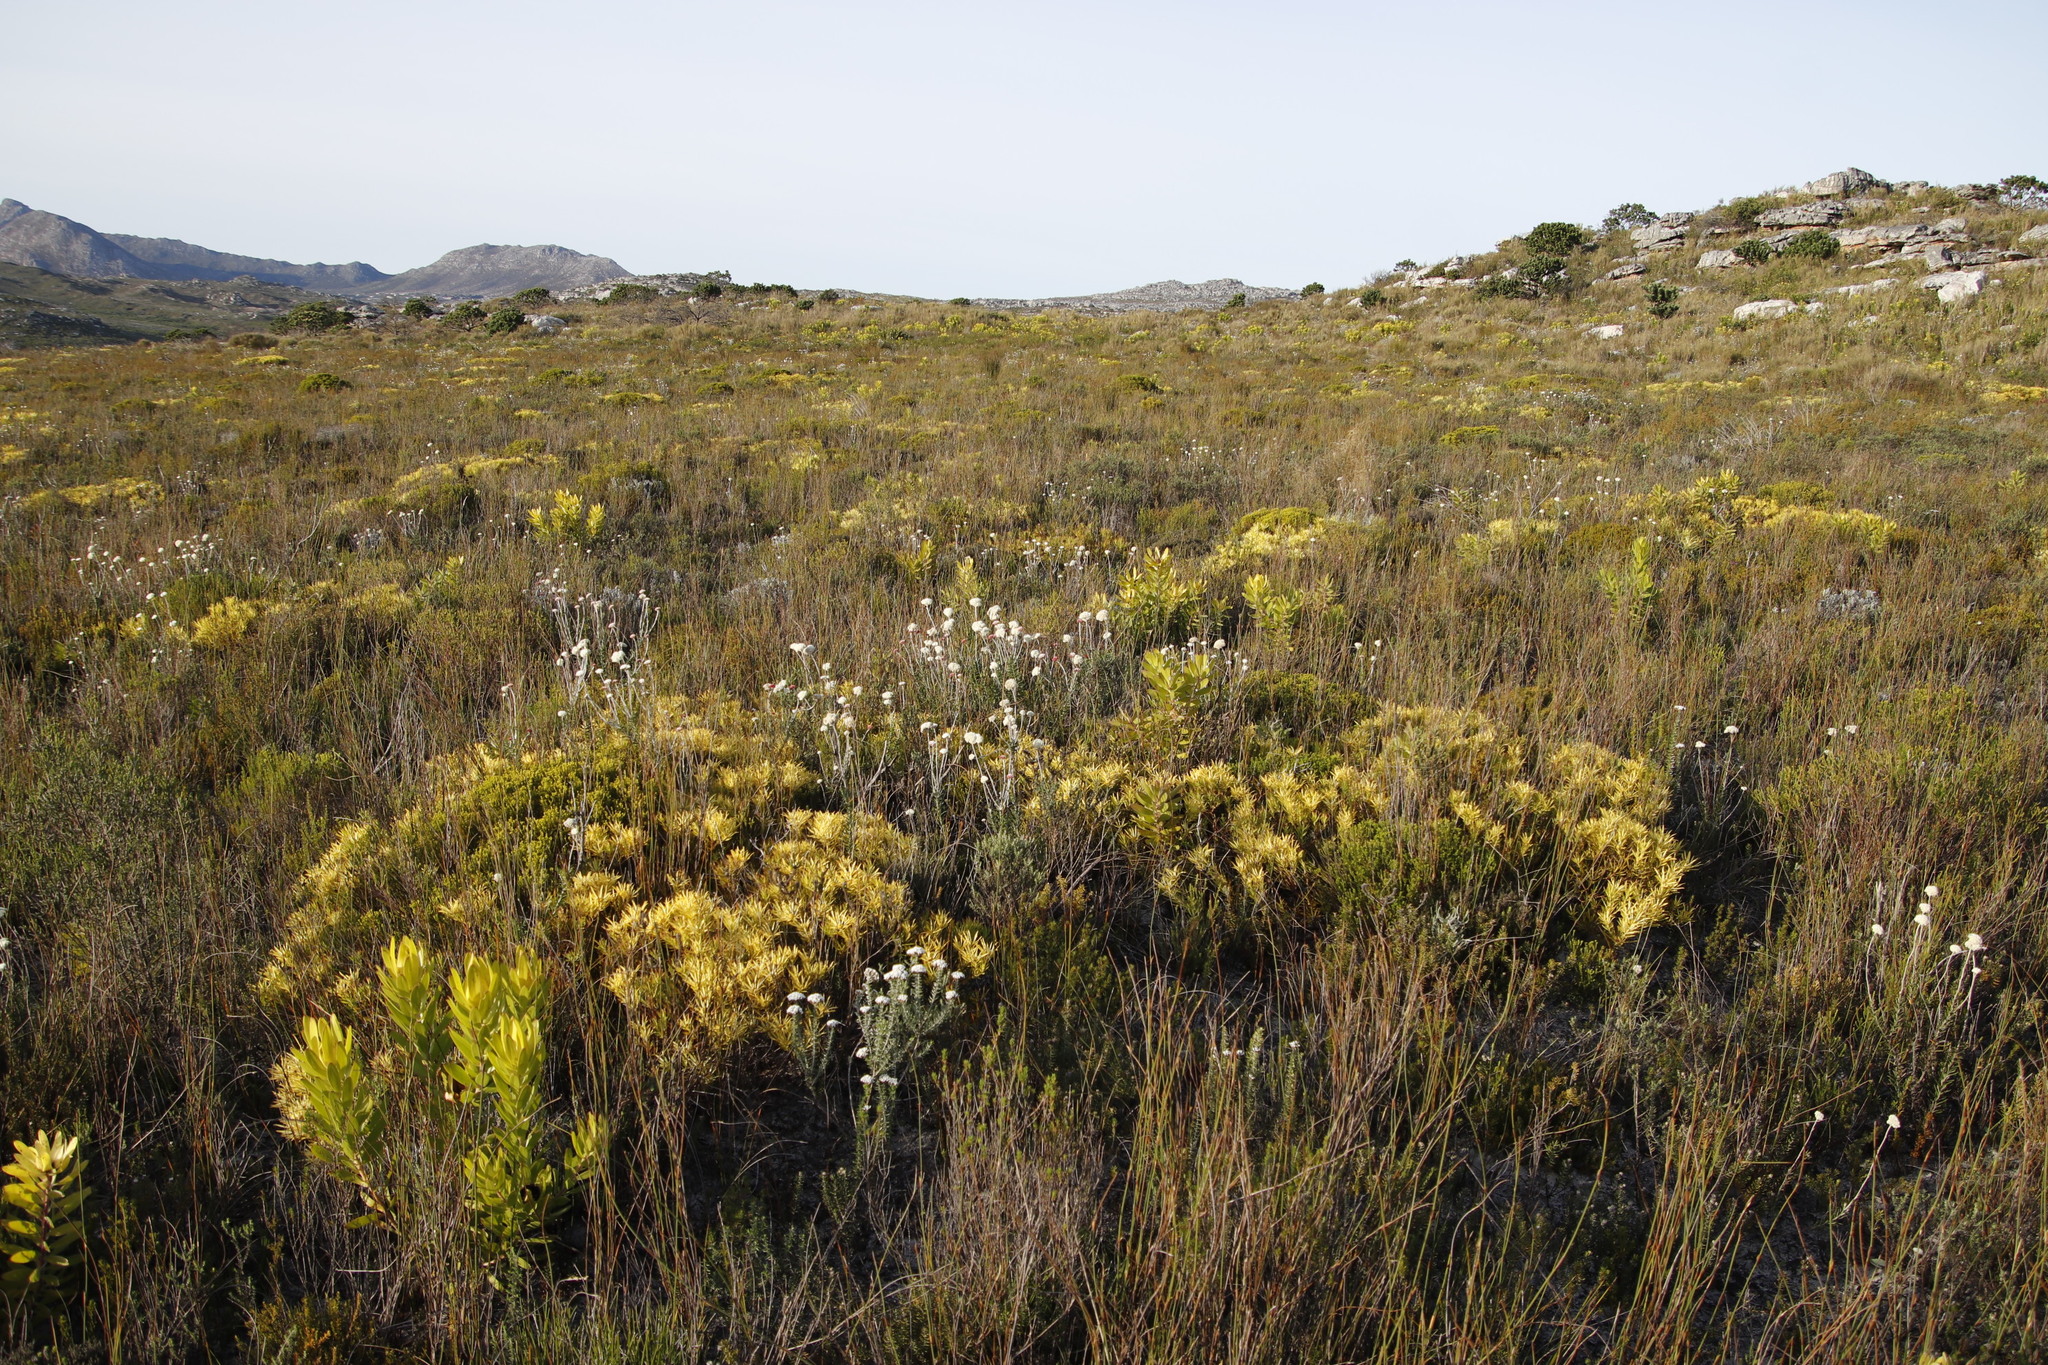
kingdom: Plantae
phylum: Tracheophyta
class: Magnoliopsida
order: Proteales
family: Proteaceae
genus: Leucadendron
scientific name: Leucadendron laureolum
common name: Golden sunshinebush
